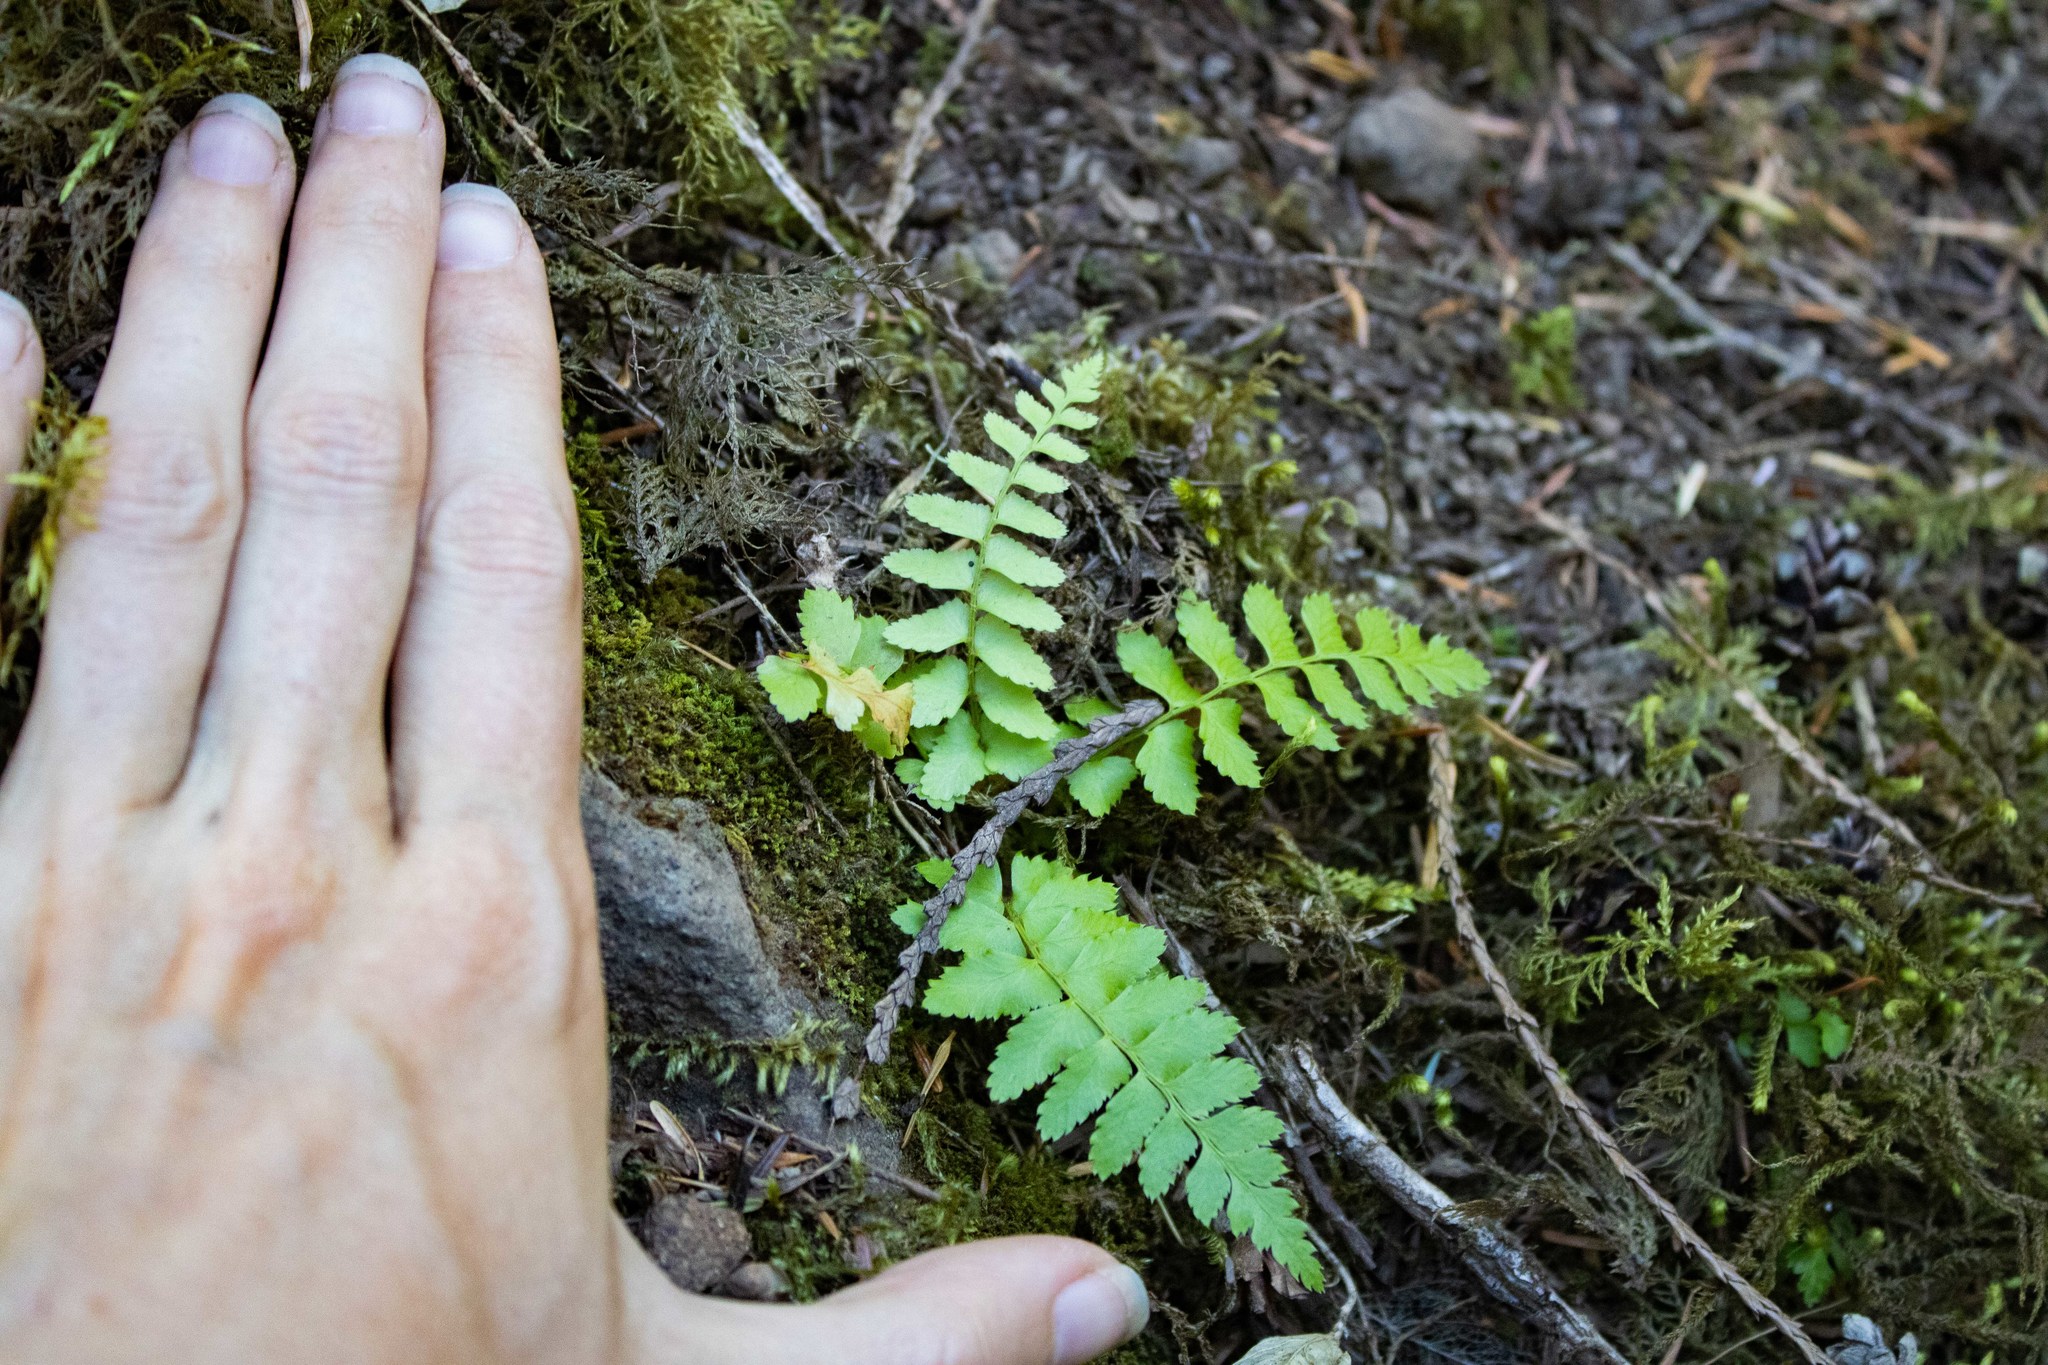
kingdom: Plantae
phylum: Tracheophyta
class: Polypodiopsida
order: Polypodiales
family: Dryopteridaceae
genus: Polystichum
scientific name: Polystichum munitum
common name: Western sword-fern
